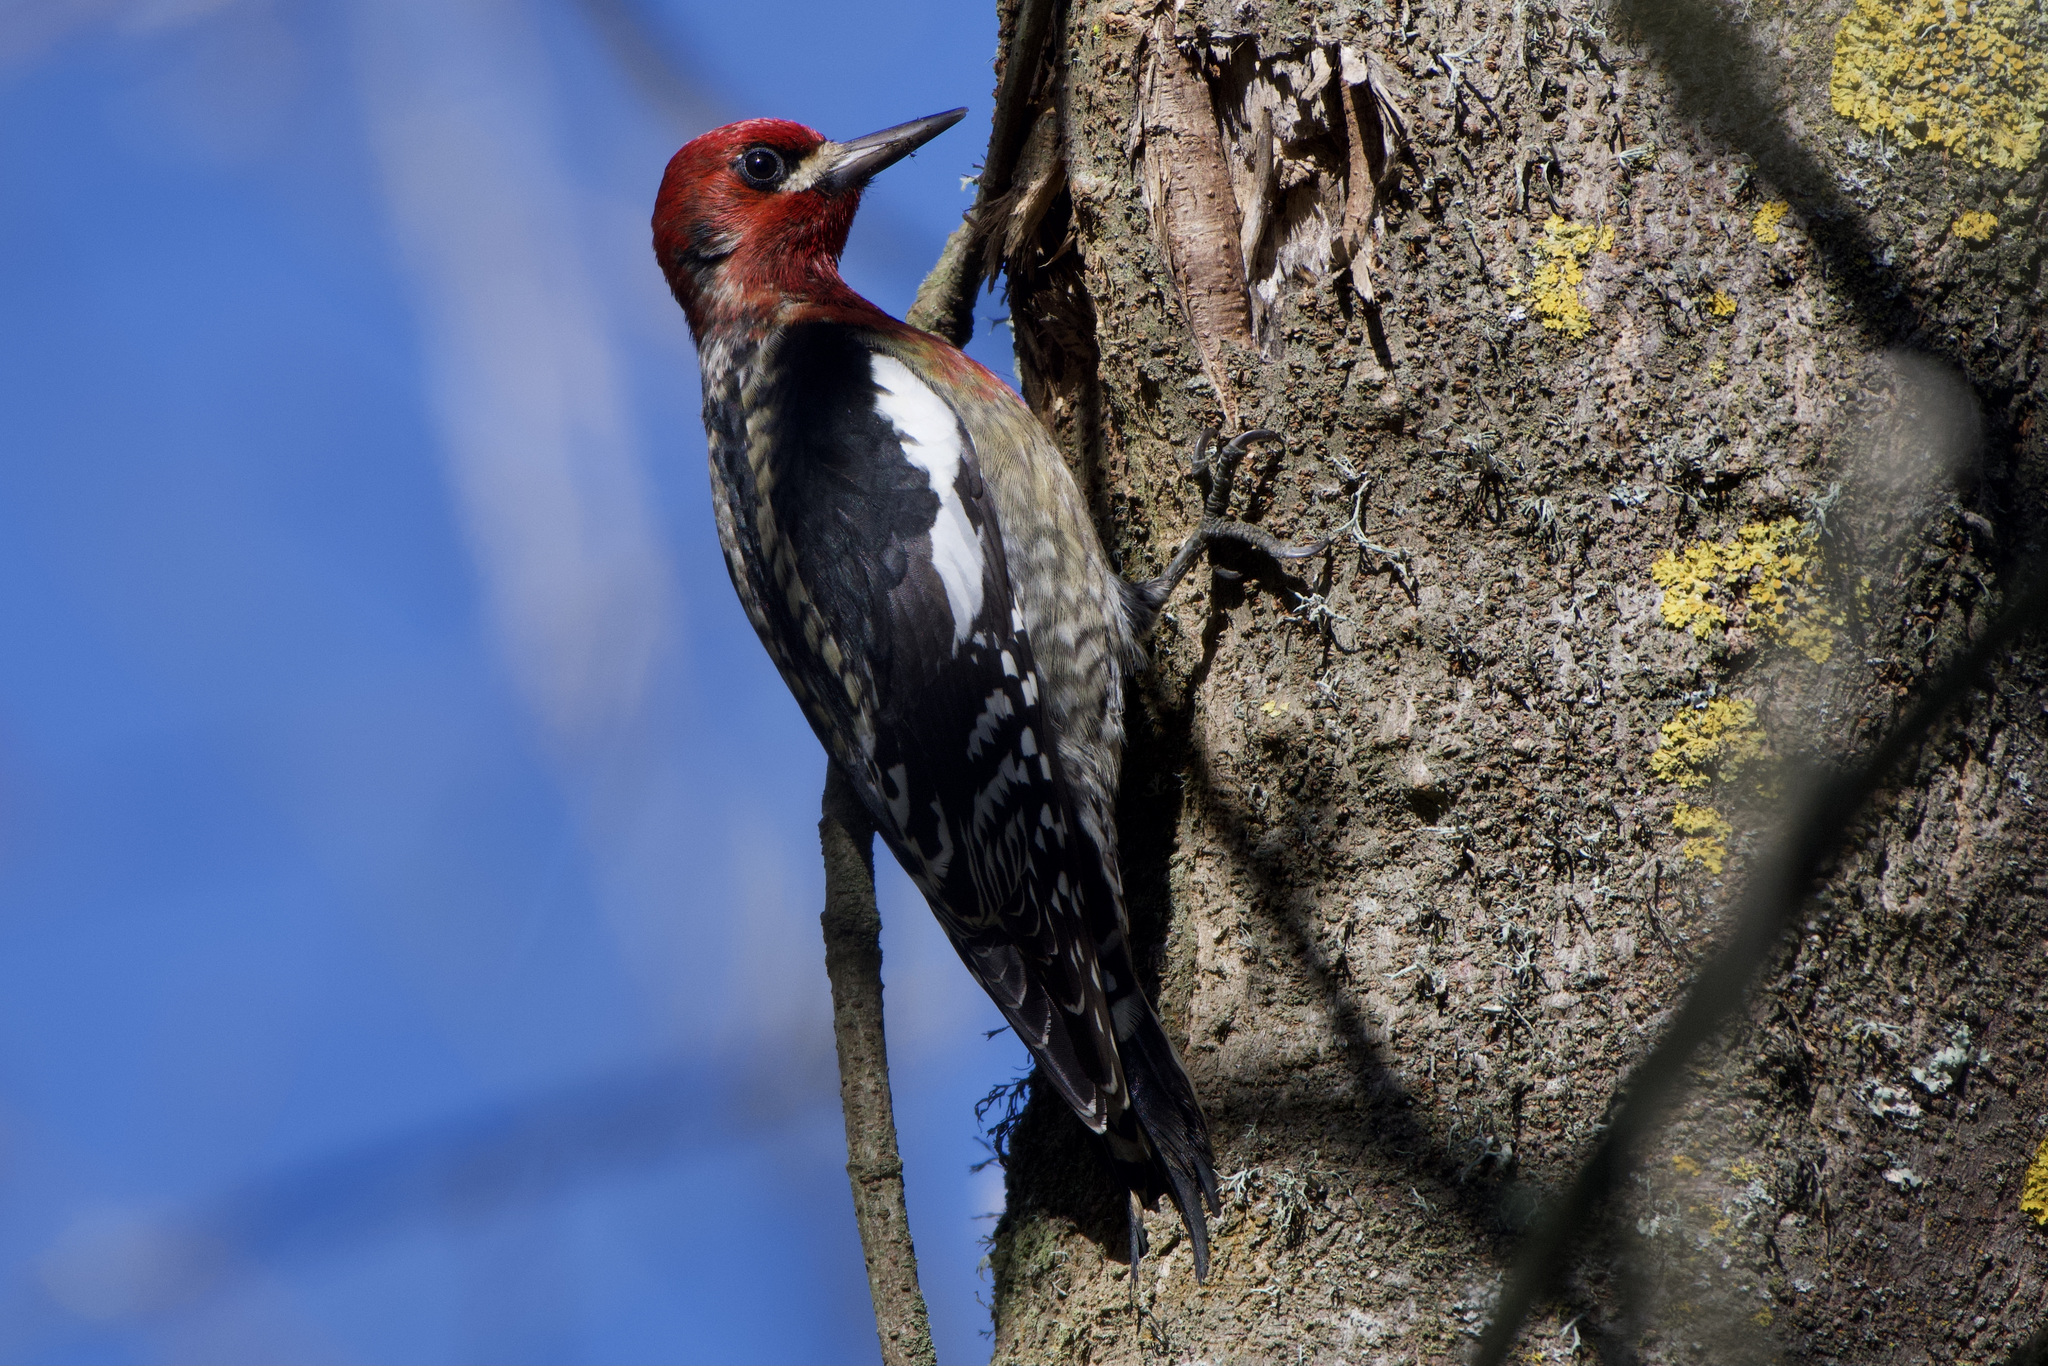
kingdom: Animalia
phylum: Chordata
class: Aves
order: Piciformes
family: Picidae
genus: Sphyrapicus
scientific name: Sphyrapicus ruber
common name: Red-breasted sapsucker
